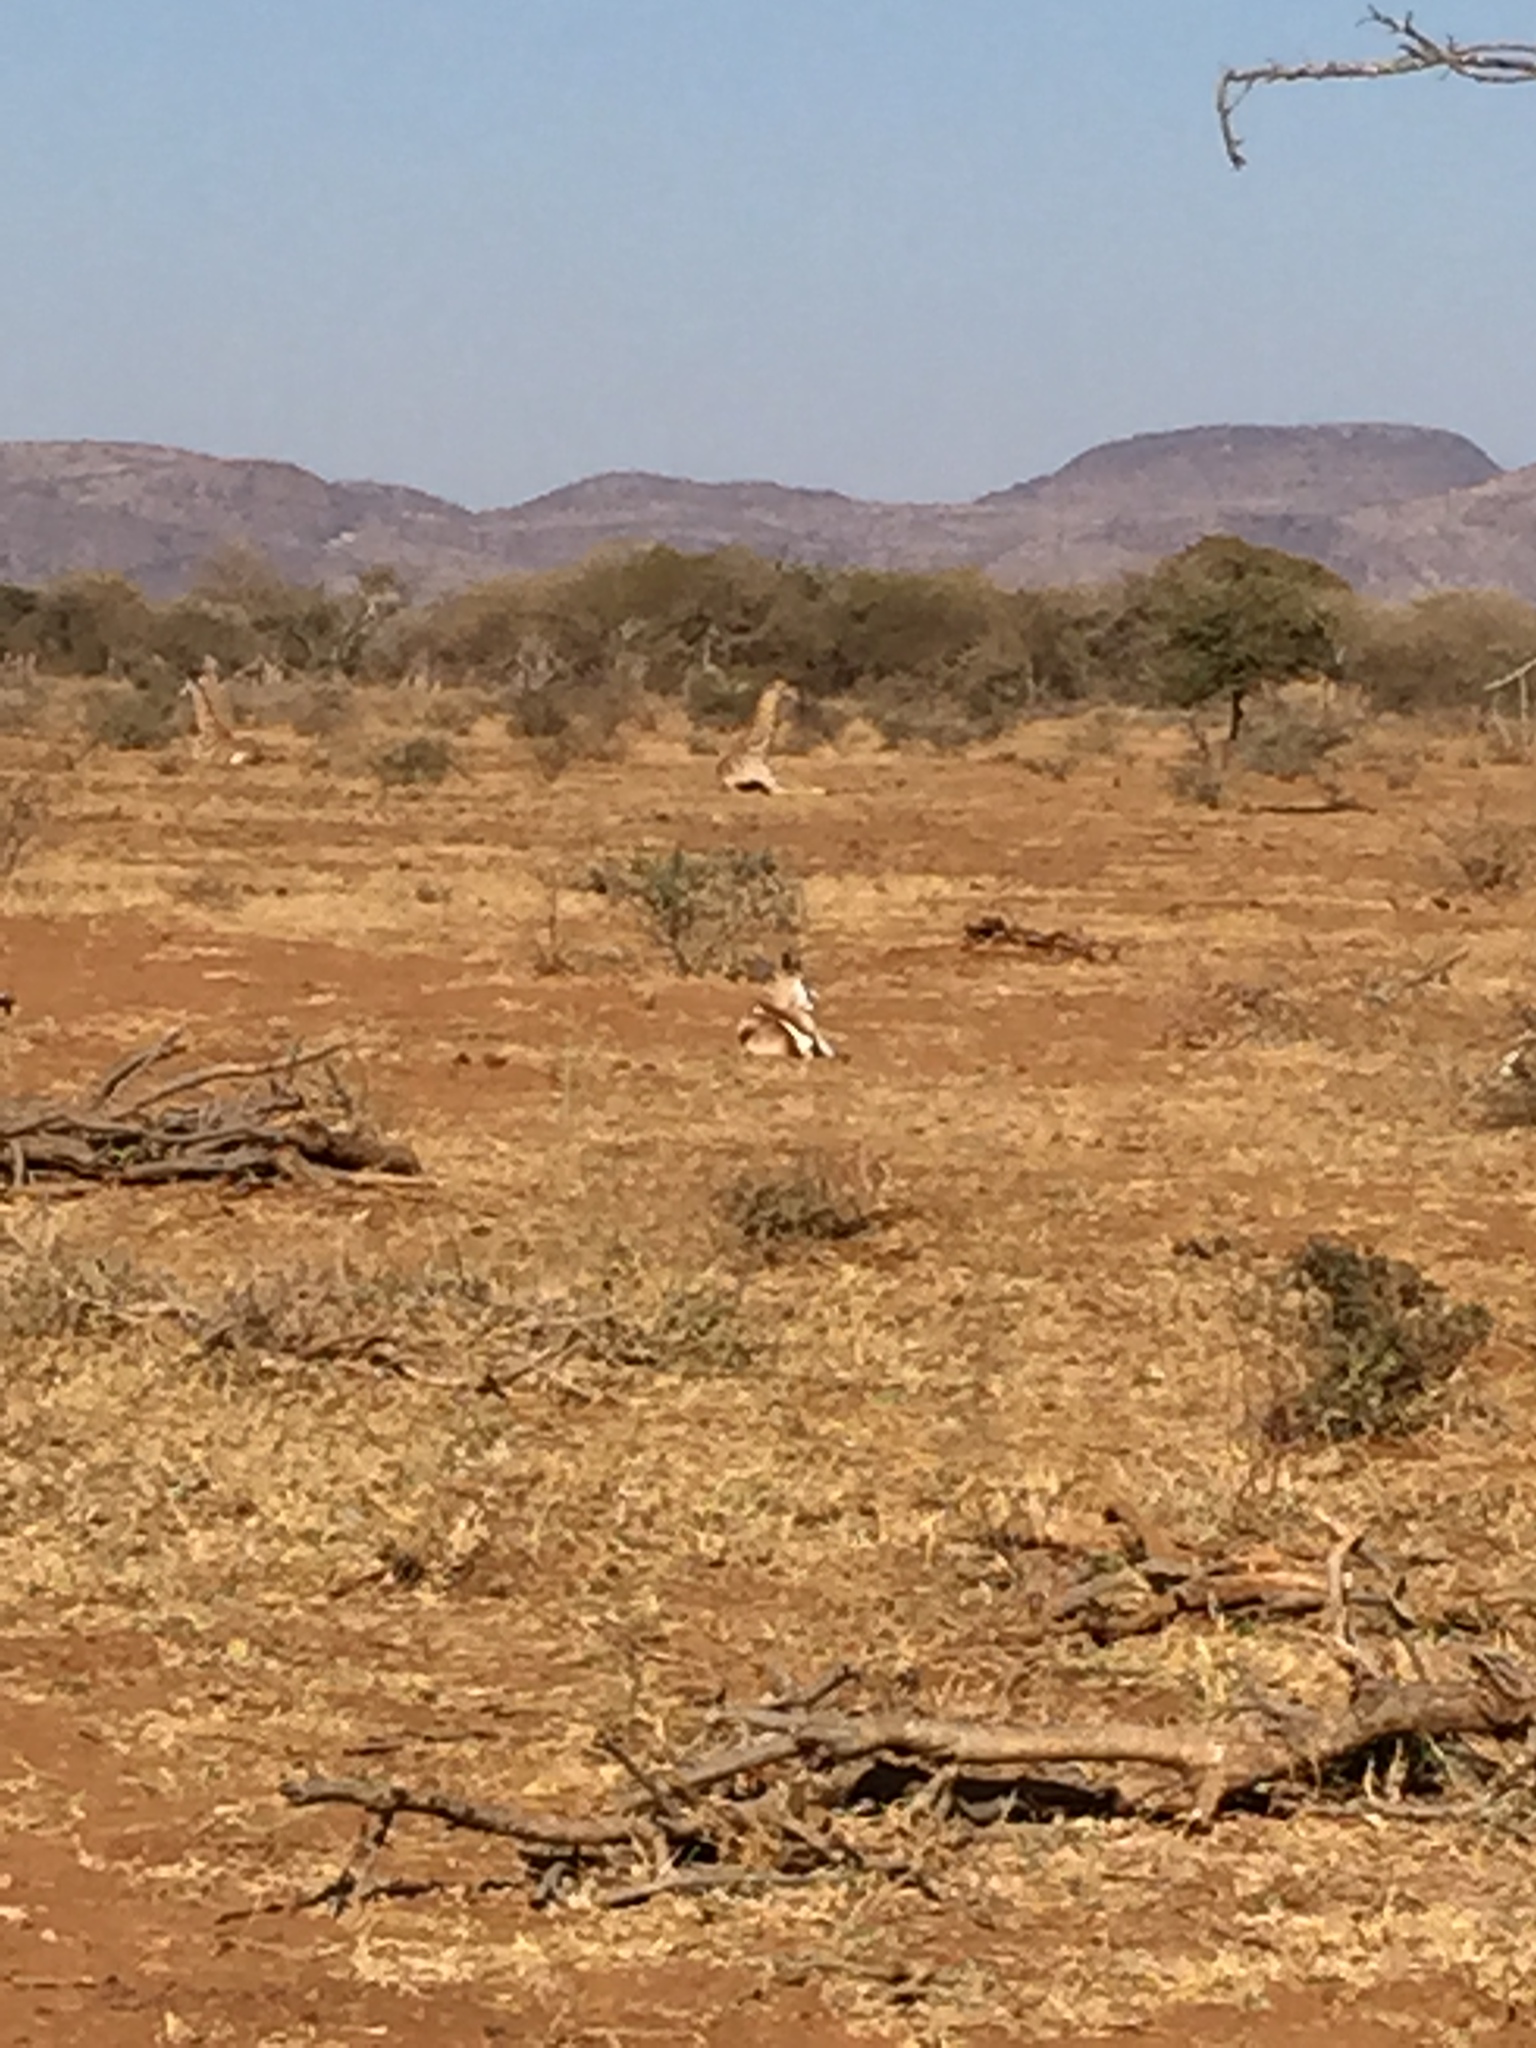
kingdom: Animalia
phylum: Chordata
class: Mammalia
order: Artiodactyla
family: Bovidae
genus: Antidorcas
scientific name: Antidorcas marsupialis
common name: Springbok
